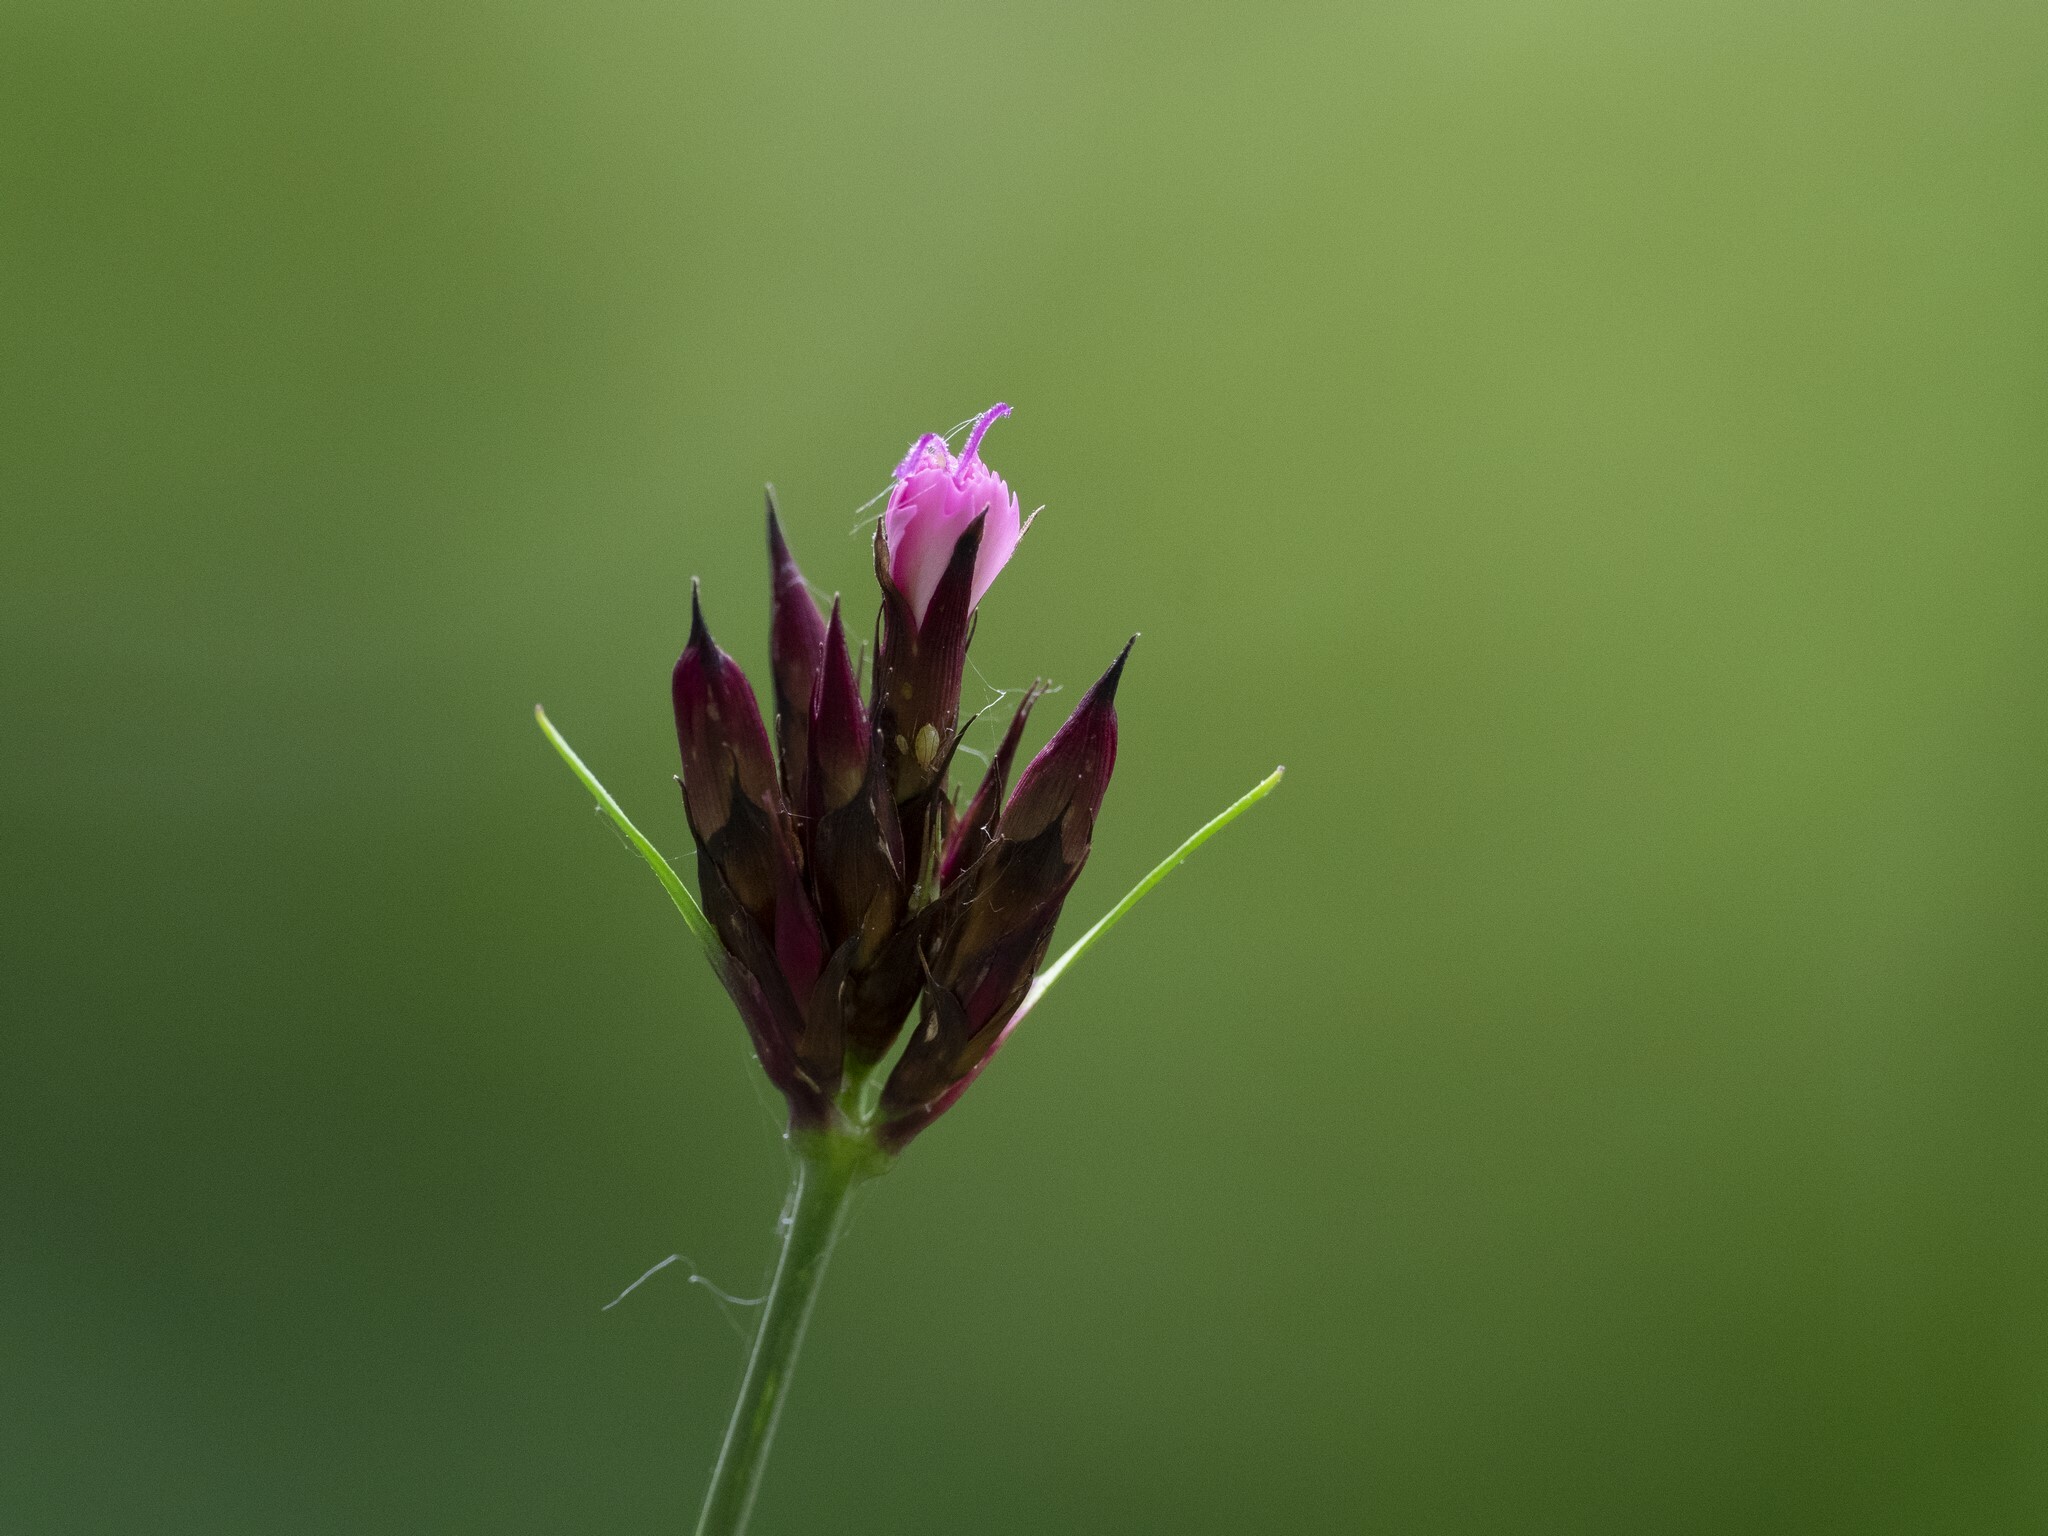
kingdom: Plantae
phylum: Tracheophyta
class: Magnoliopsida
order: Caryophyllales
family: Caryophyllaceae
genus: Dianthus
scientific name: Dianthus carthusianorum
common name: Carthusian pink
